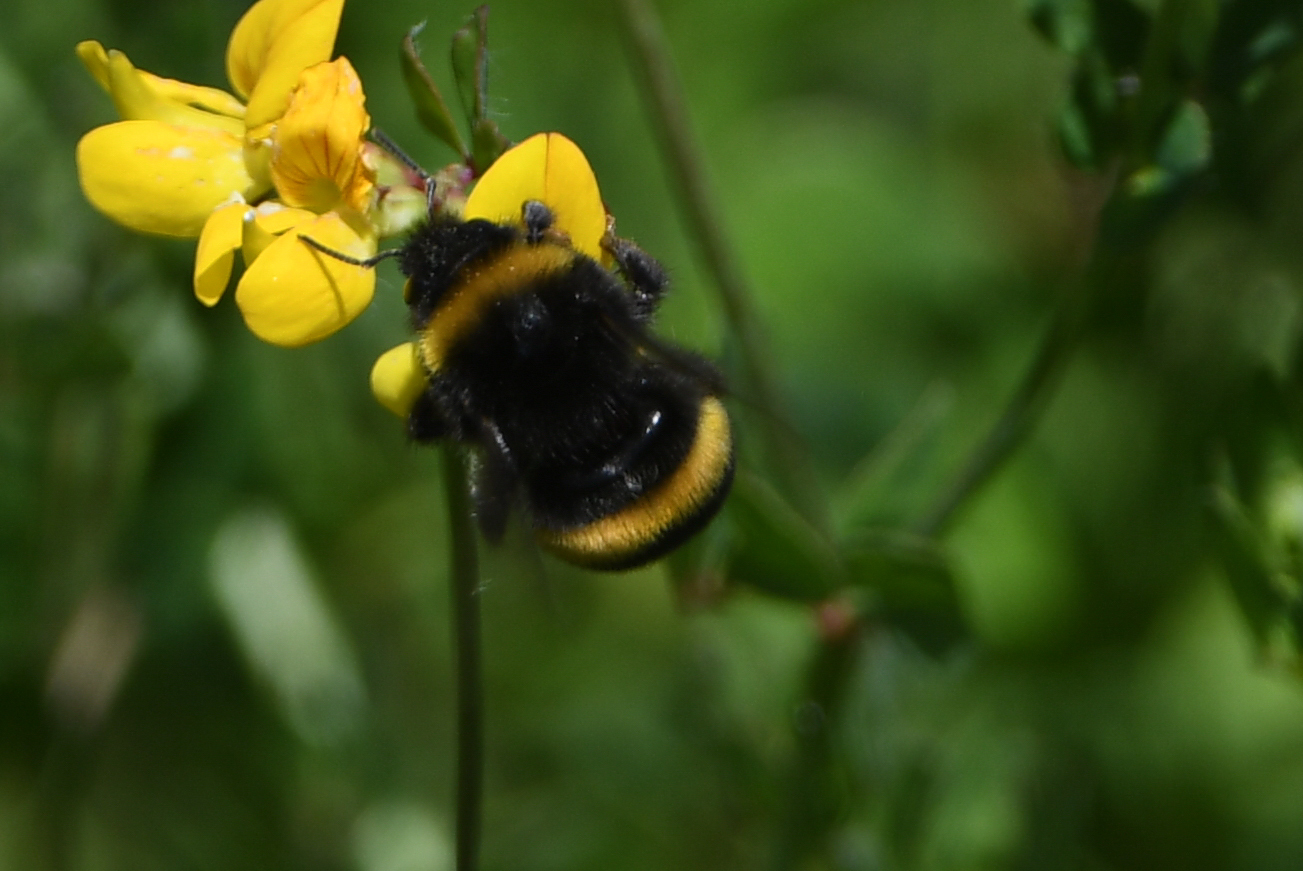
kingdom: Animalia
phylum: Arthropoda
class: Insecta
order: Hymenoptera
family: Apidae
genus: Bombus
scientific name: Bombus terrestris
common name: Buff-tailed bumblebee
